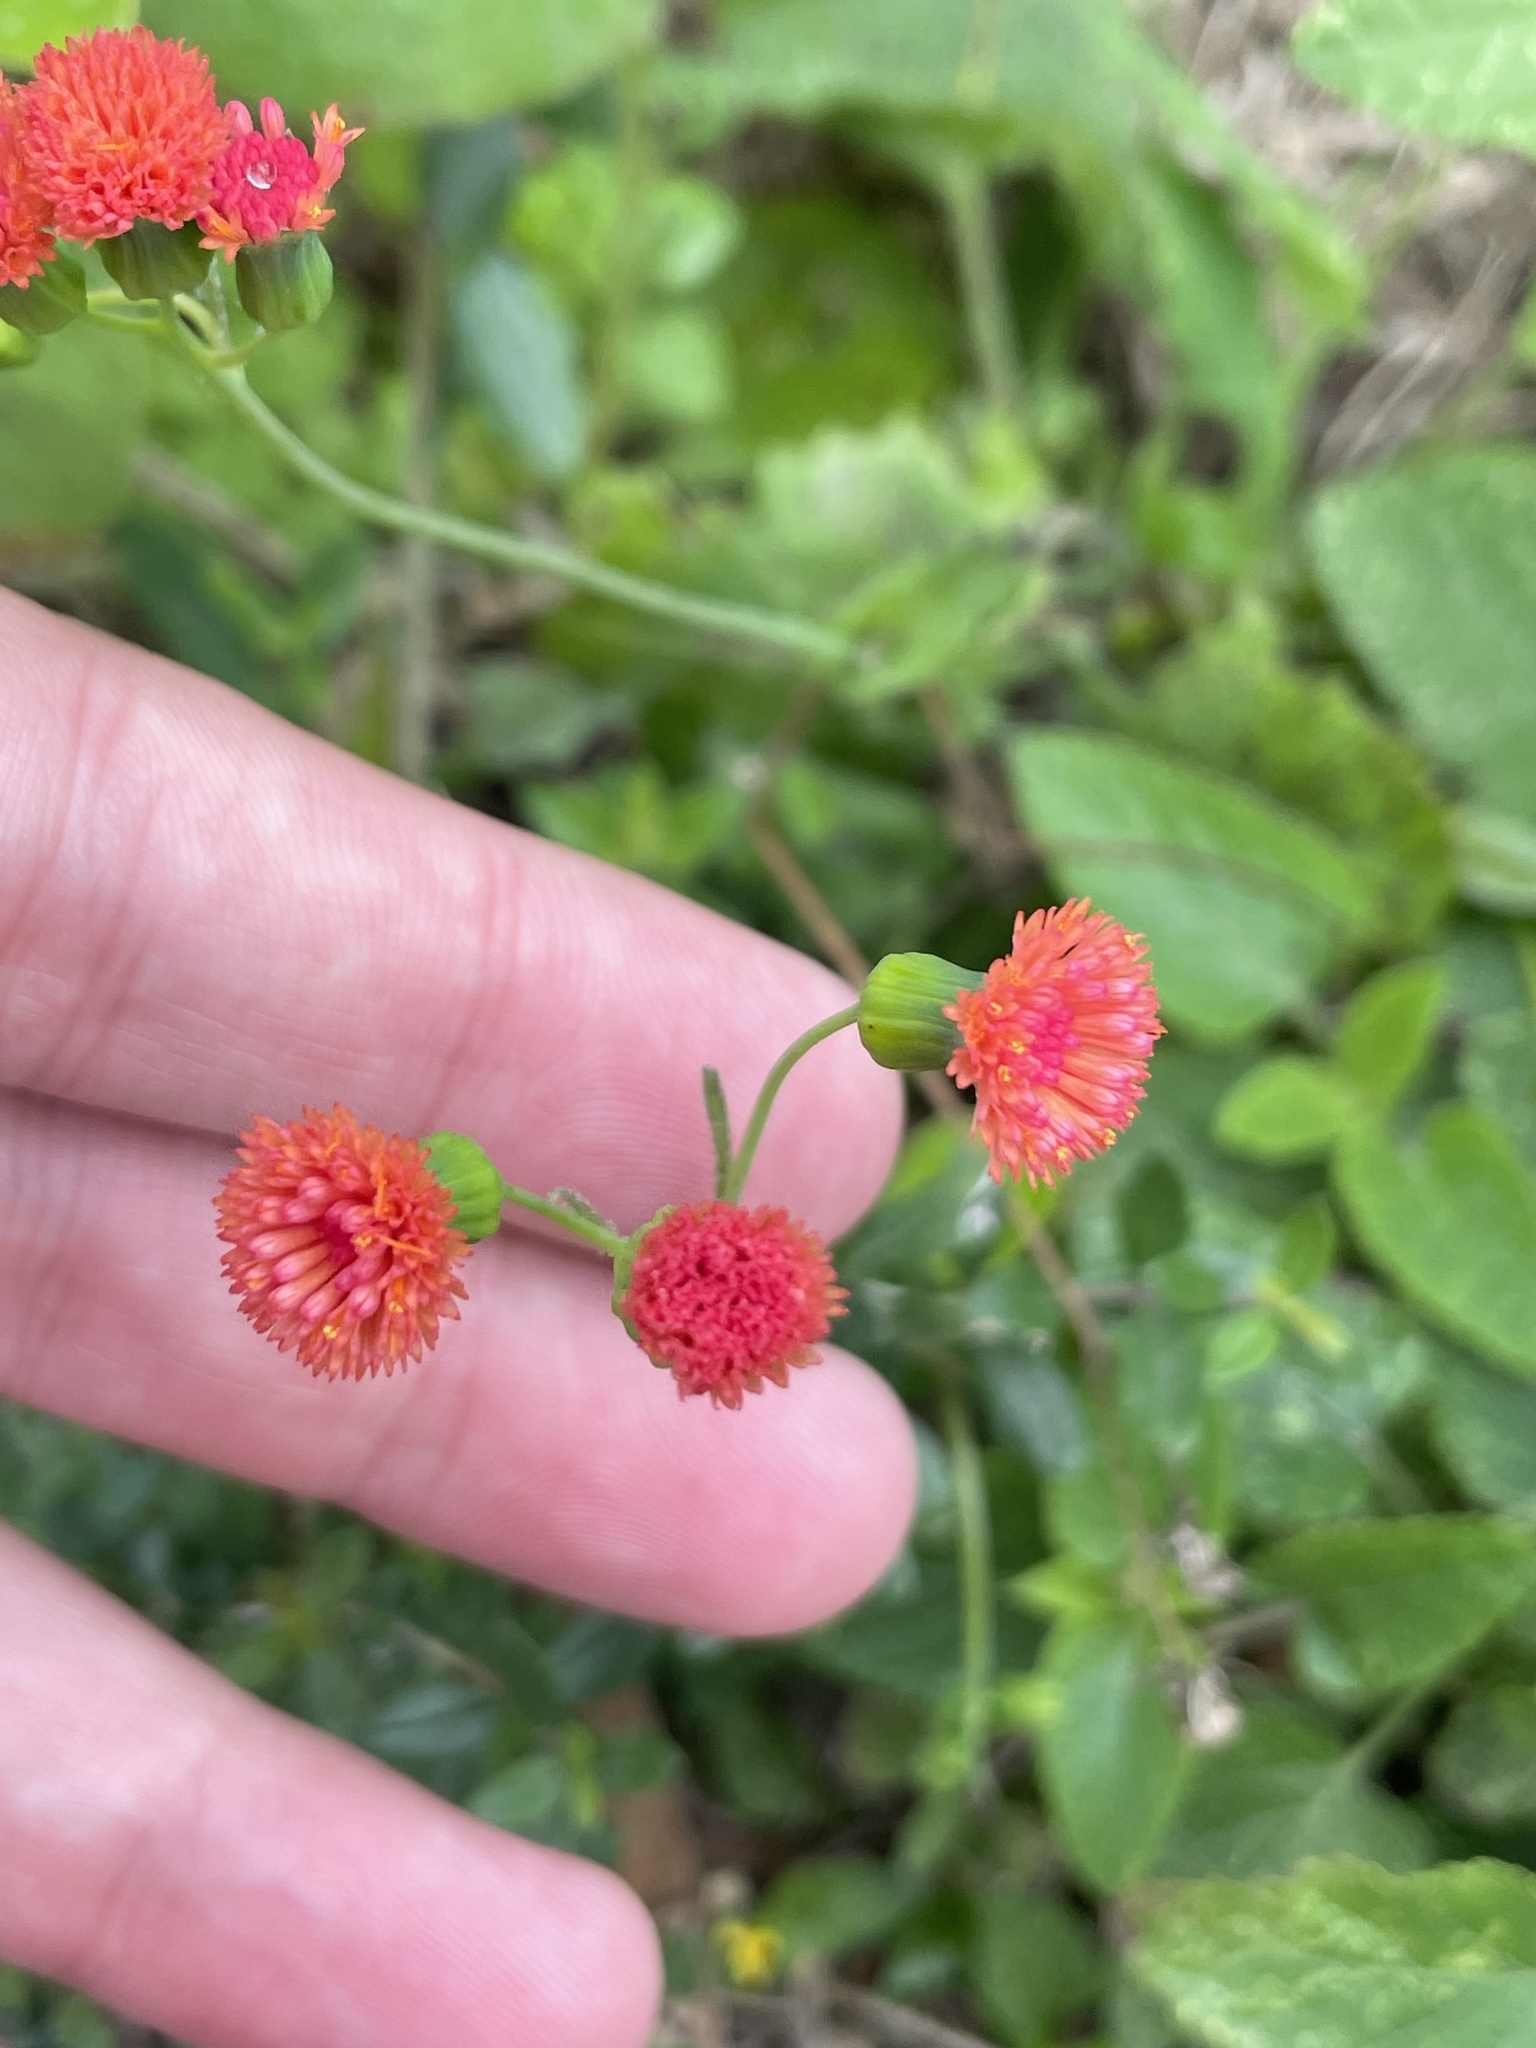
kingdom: Plantae
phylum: Tracheophyta
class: Magnoliopsida
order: Asterales
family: Asteraceae
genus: Emilia
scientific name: Emilia fosbergii
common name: Florida tasselflower
